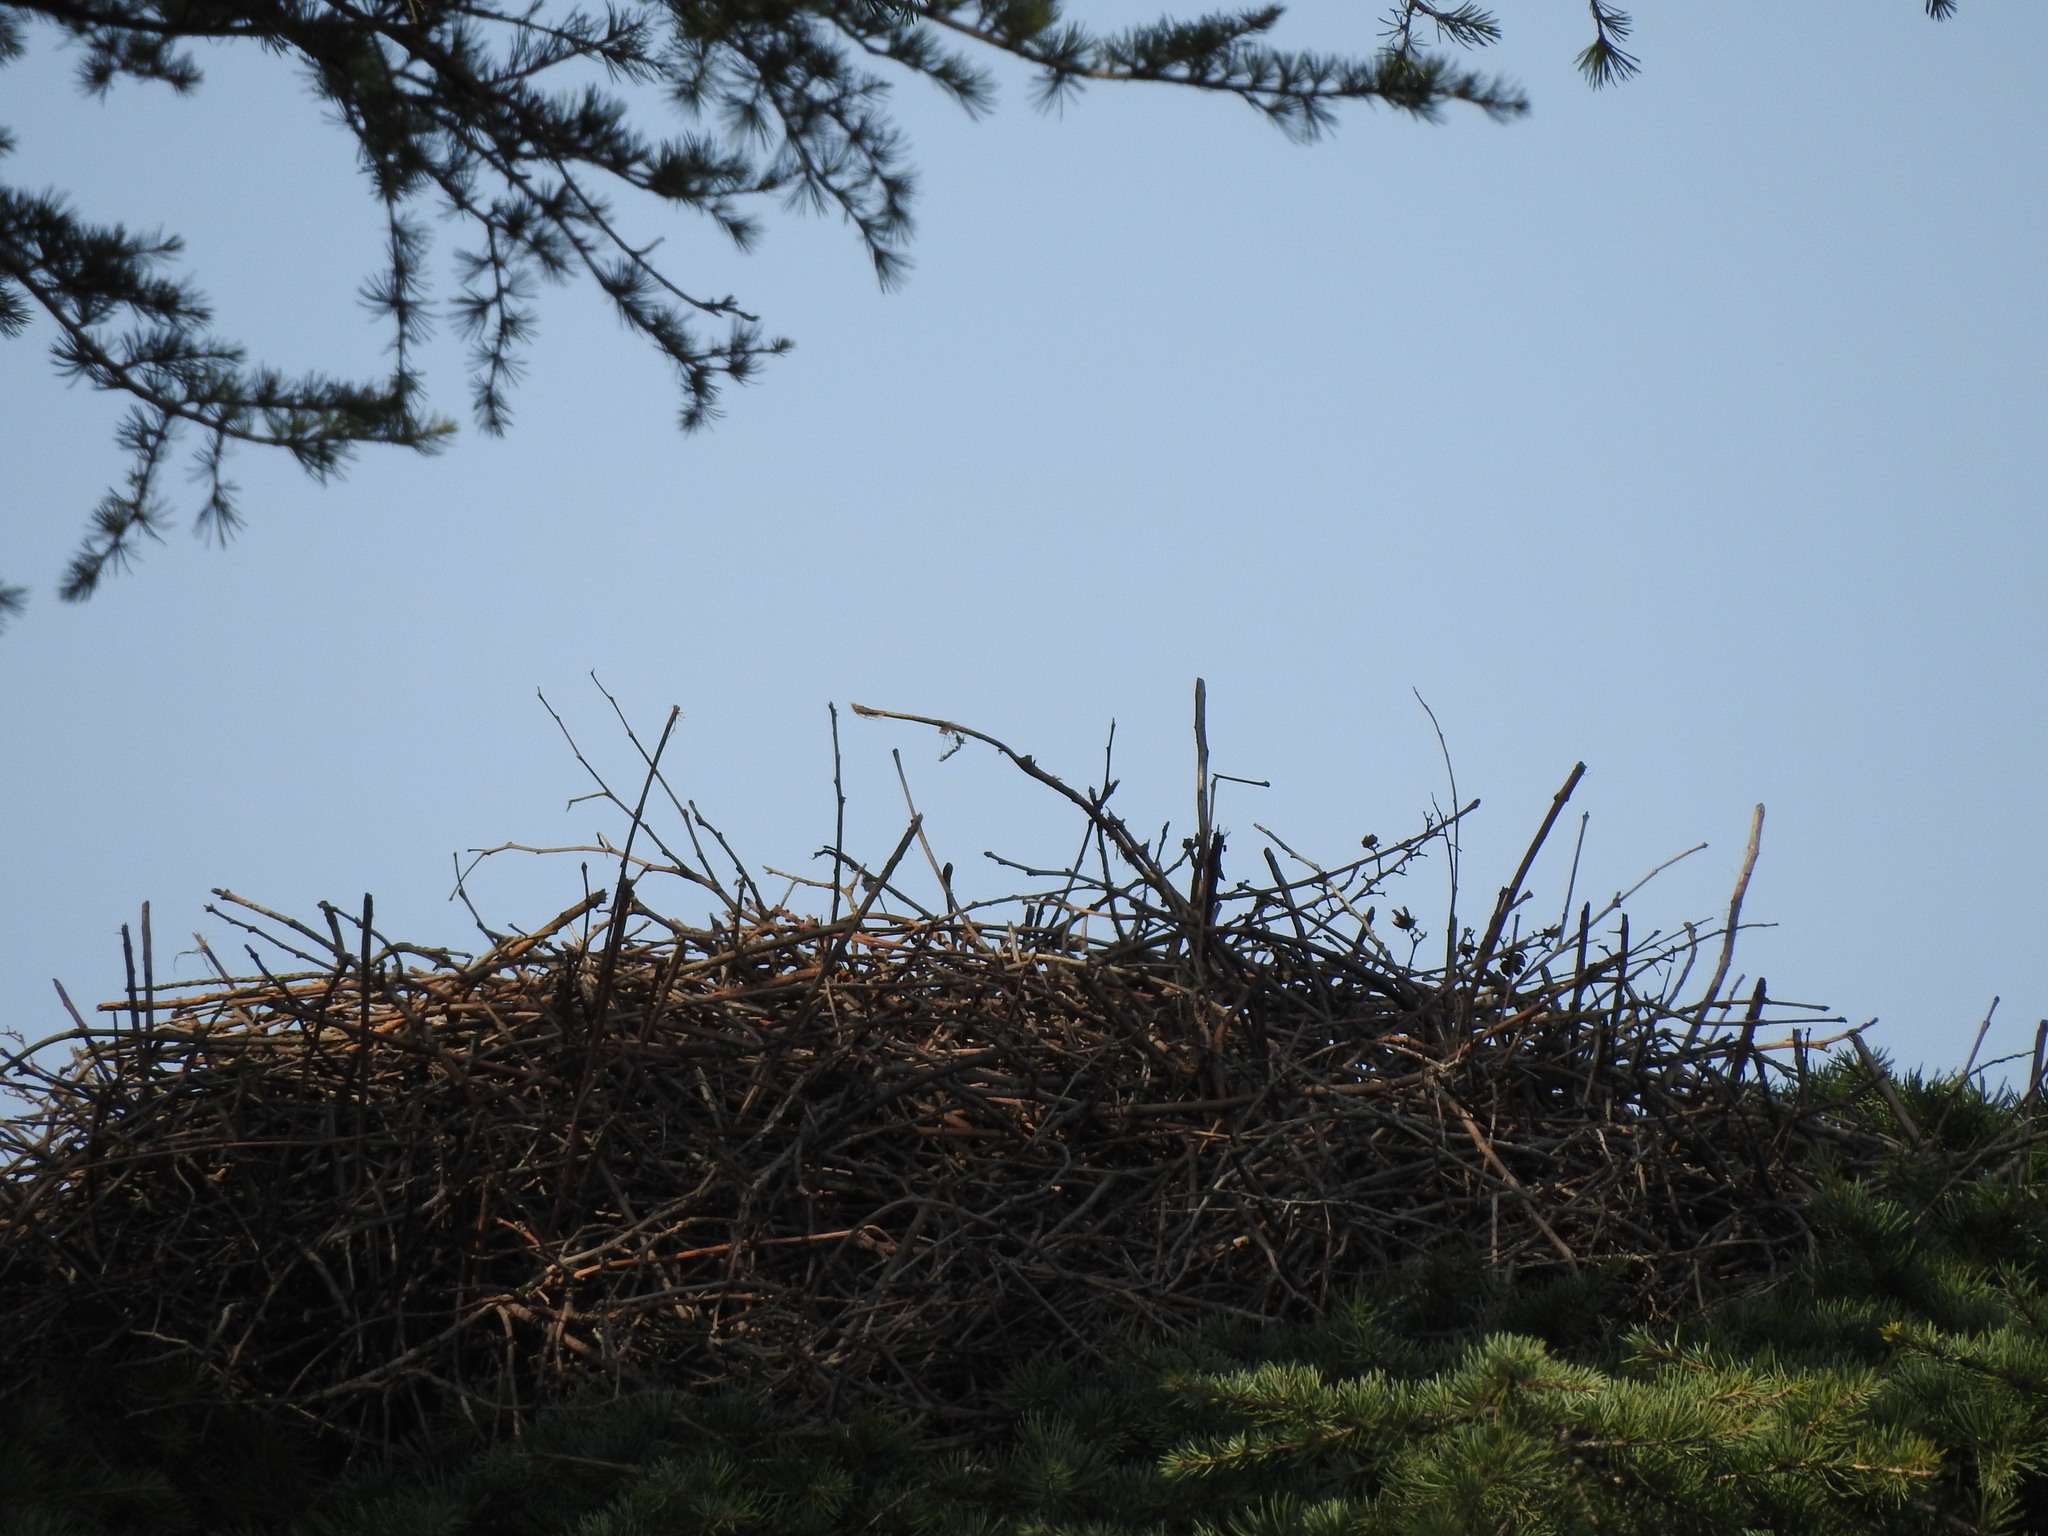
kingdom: Animalia
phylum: Chordata
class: Aves
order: Accipitriformes
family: Accipitridae
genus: Parabuteo
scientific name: Parabuteo unicinctus
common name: Harris's hawk
